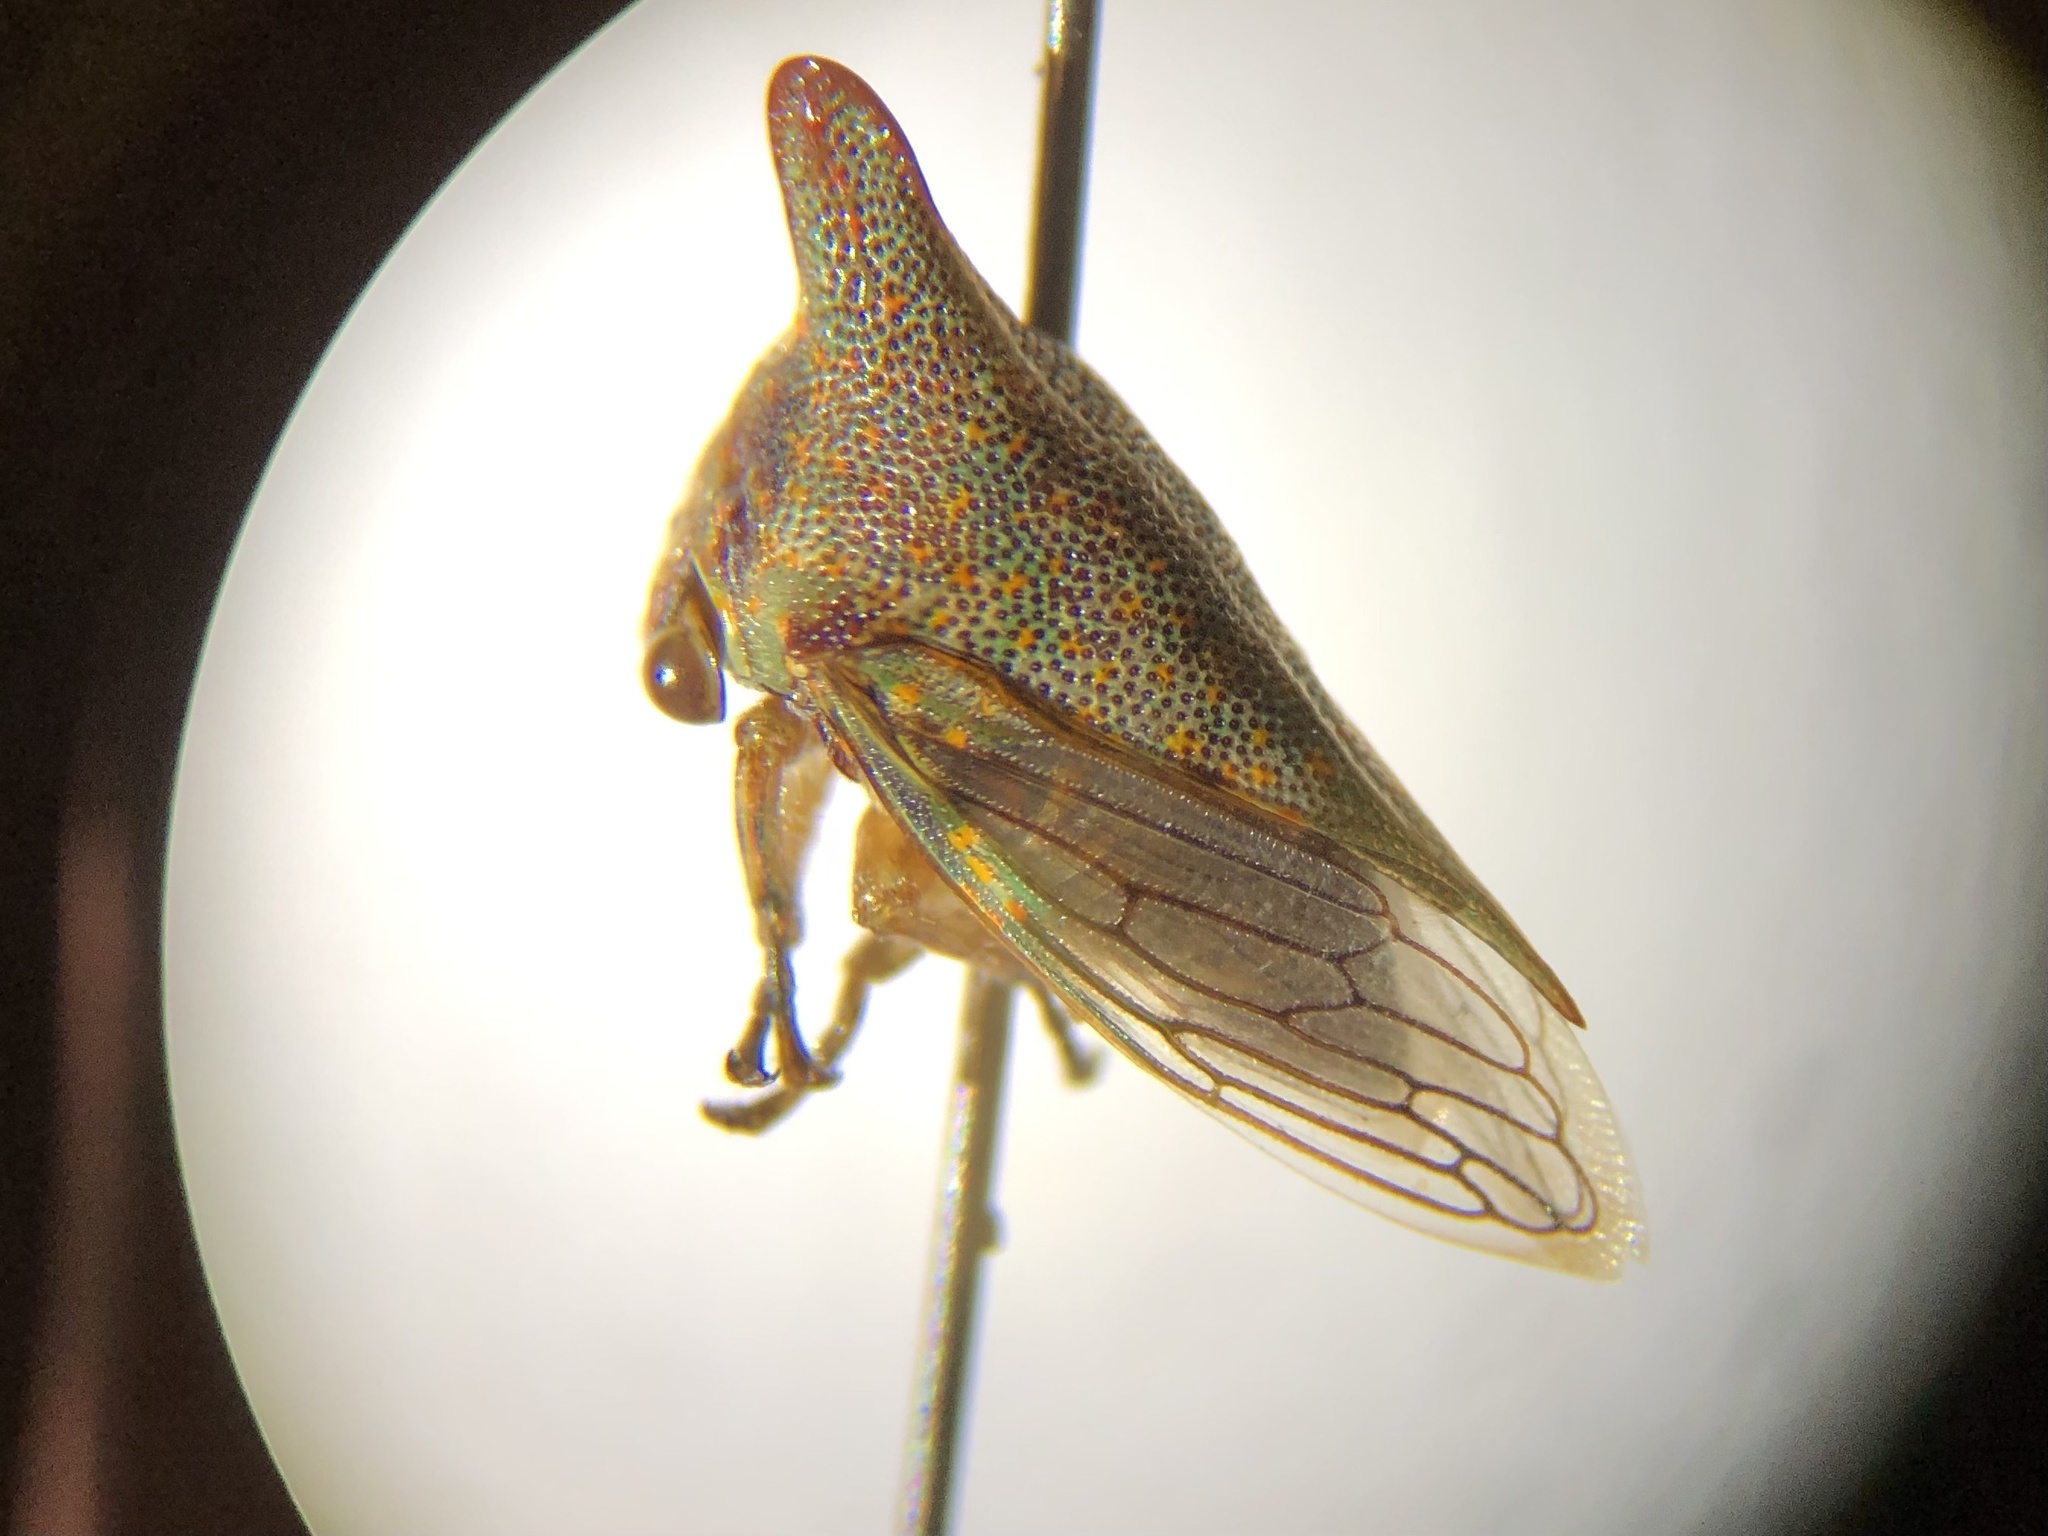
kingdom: Animalia
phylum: Arthropoda
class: Insecta
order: Hemiptera
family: Membracidae
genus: Platycotis
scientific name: Platycotis vittatus
